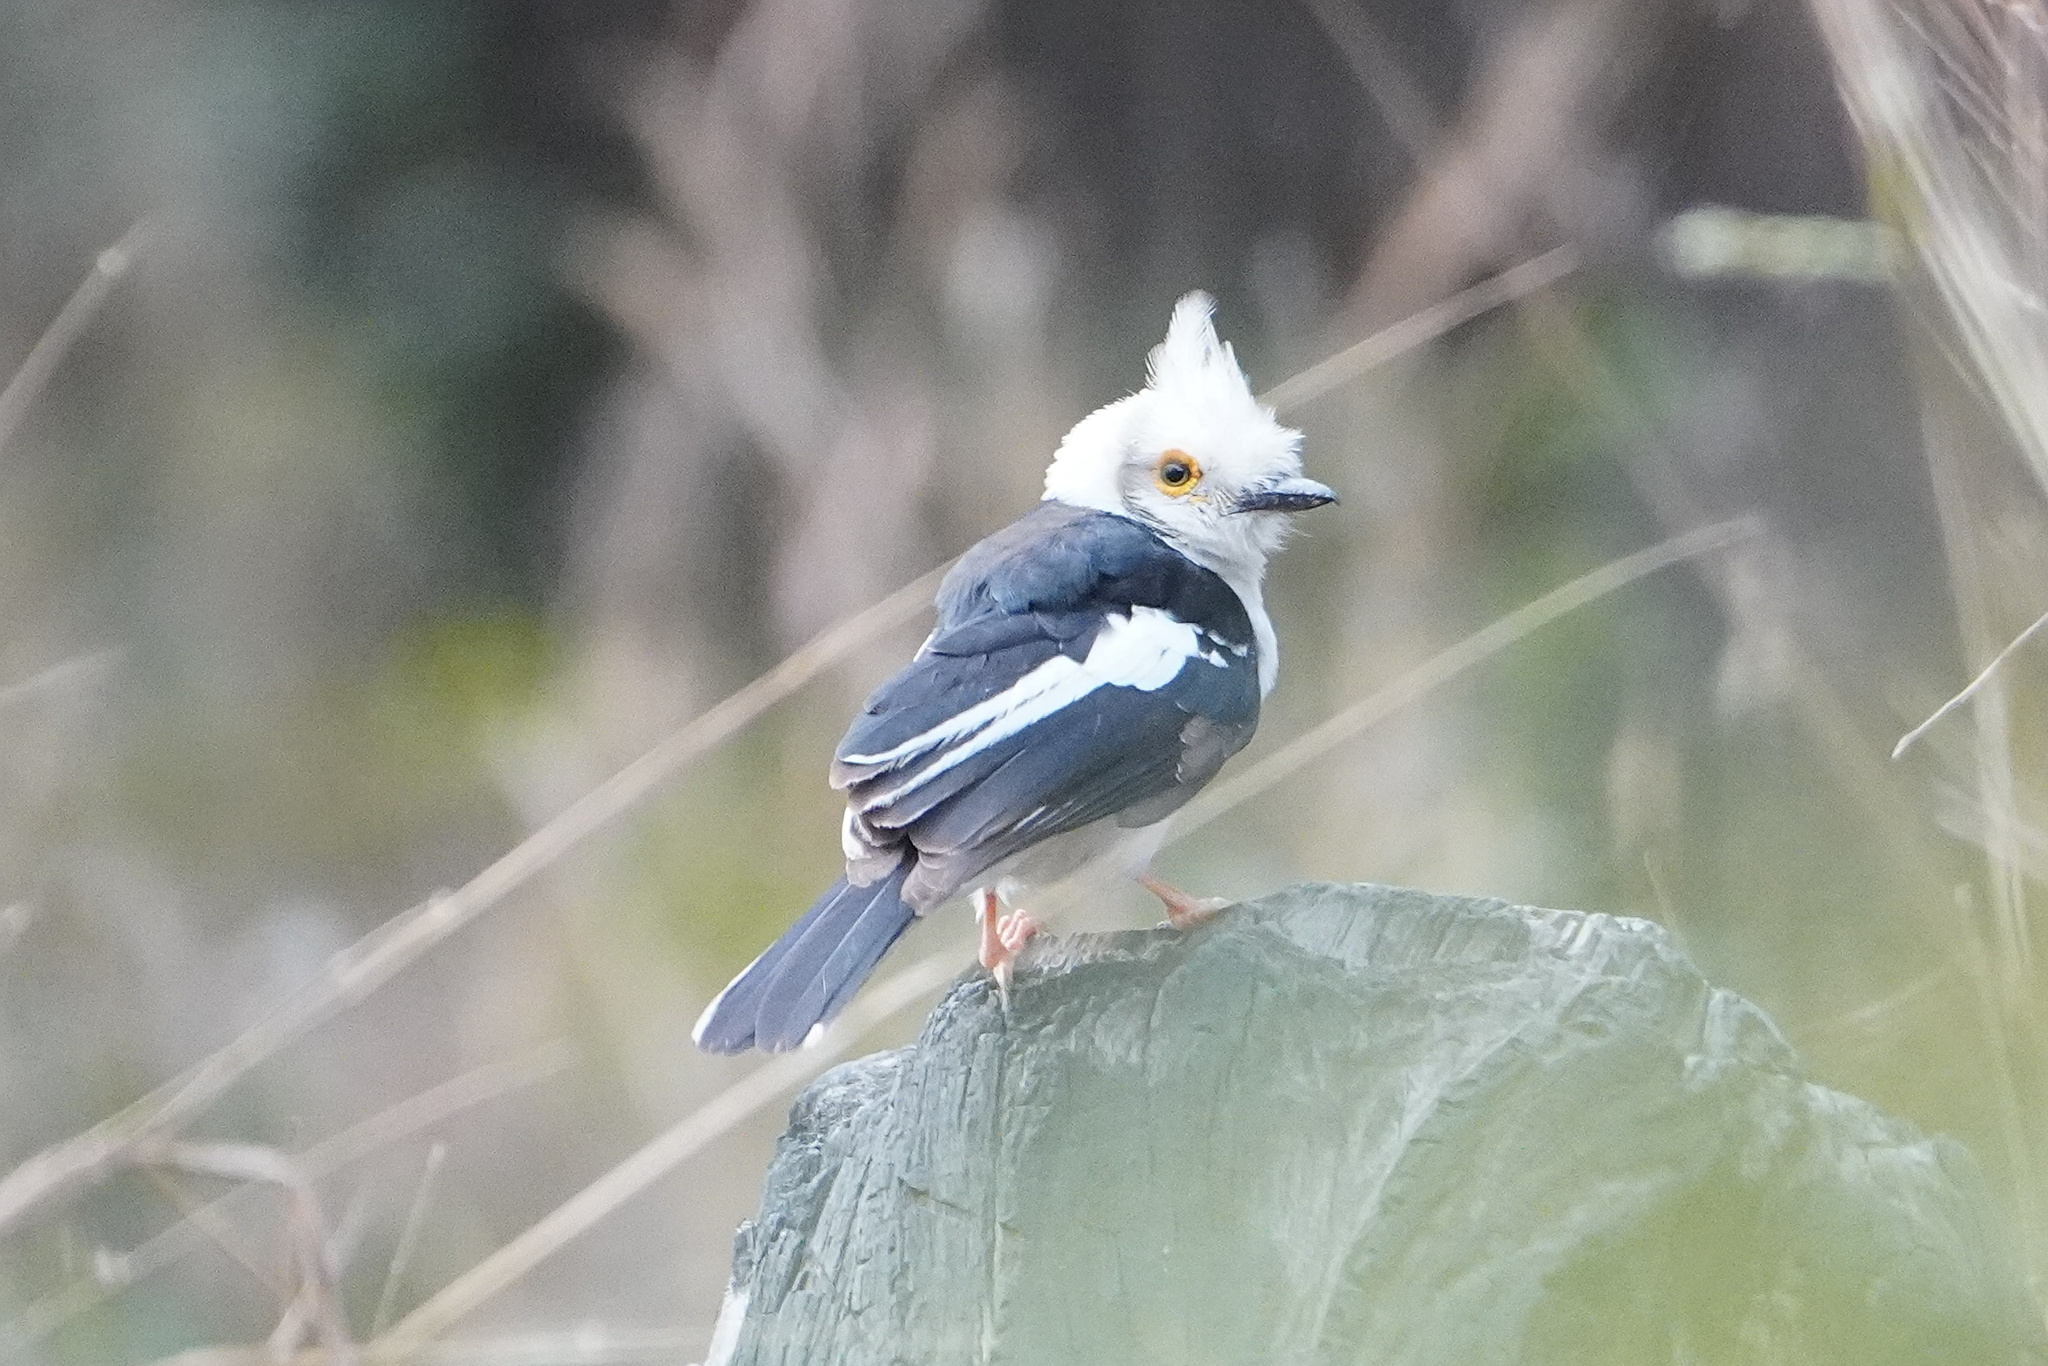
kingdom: Animalia
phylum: Chordata
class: Aves
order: Passeriformes
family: Prionopidae
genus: Prionops
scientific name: Prionops plumatus
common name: White-crested helmetshrike
